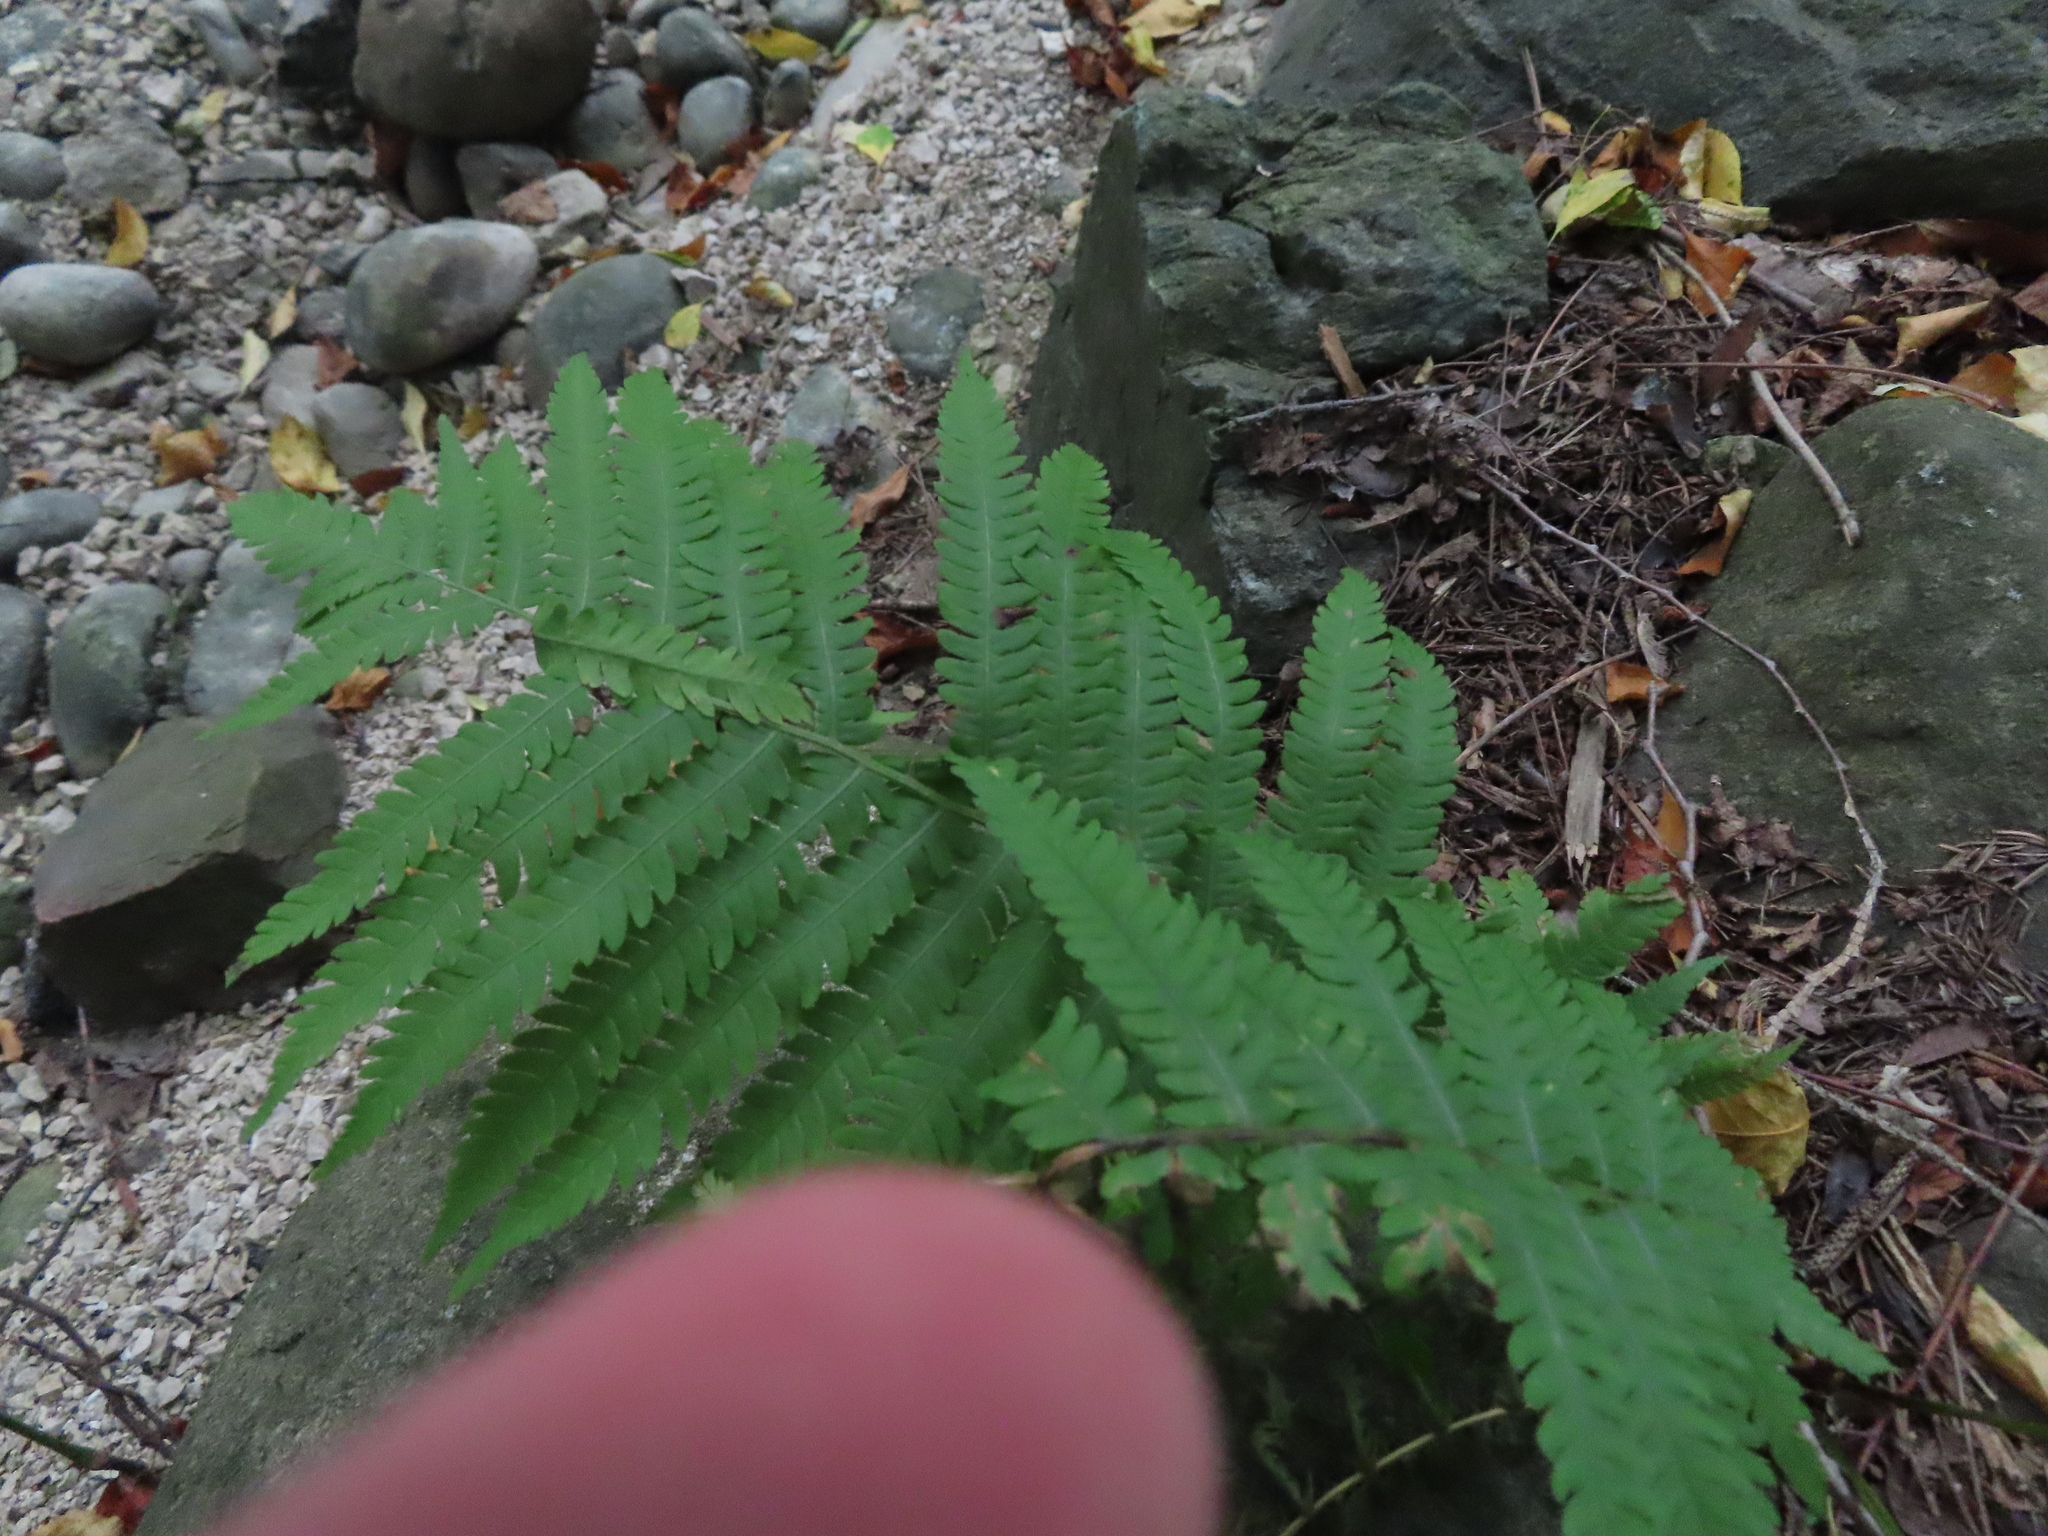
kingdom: Plantae
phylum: Tracheophyta
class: Polypodiopsida
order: Polypodiales
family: Onocleaceae
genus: Matteuccia
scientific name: Matteuccia struthiopteris
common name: Ostrich fern
